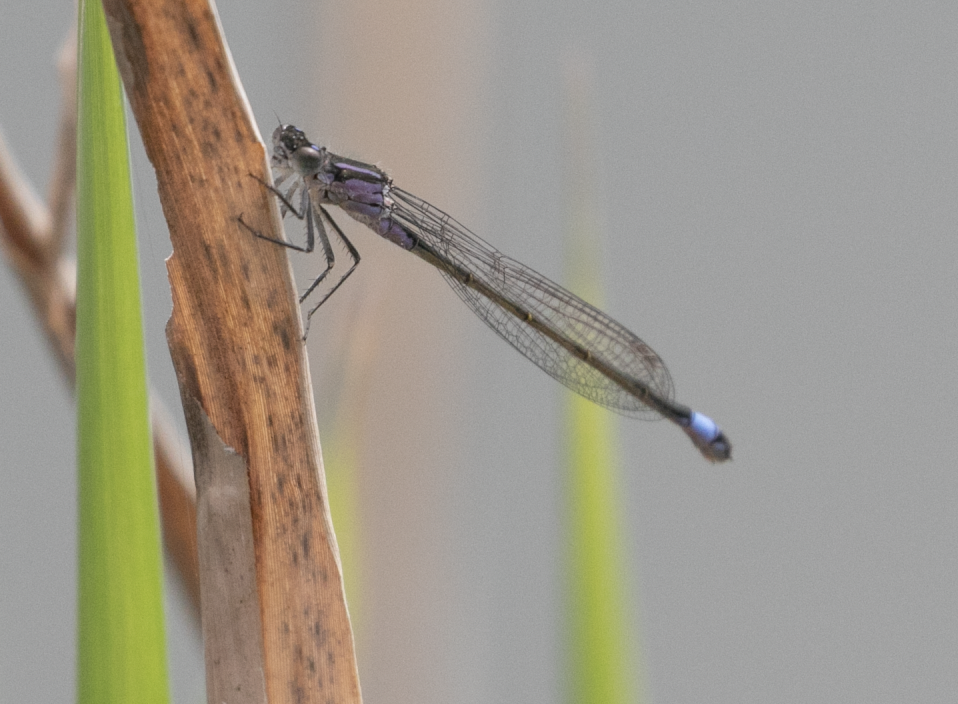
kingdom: Animalia
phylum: Arthropoda
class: Insecta
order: Odonata
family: Coenagrionidae
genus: Ischnura
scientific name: Ischnura elegans
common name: Blue-tailed damselfly
